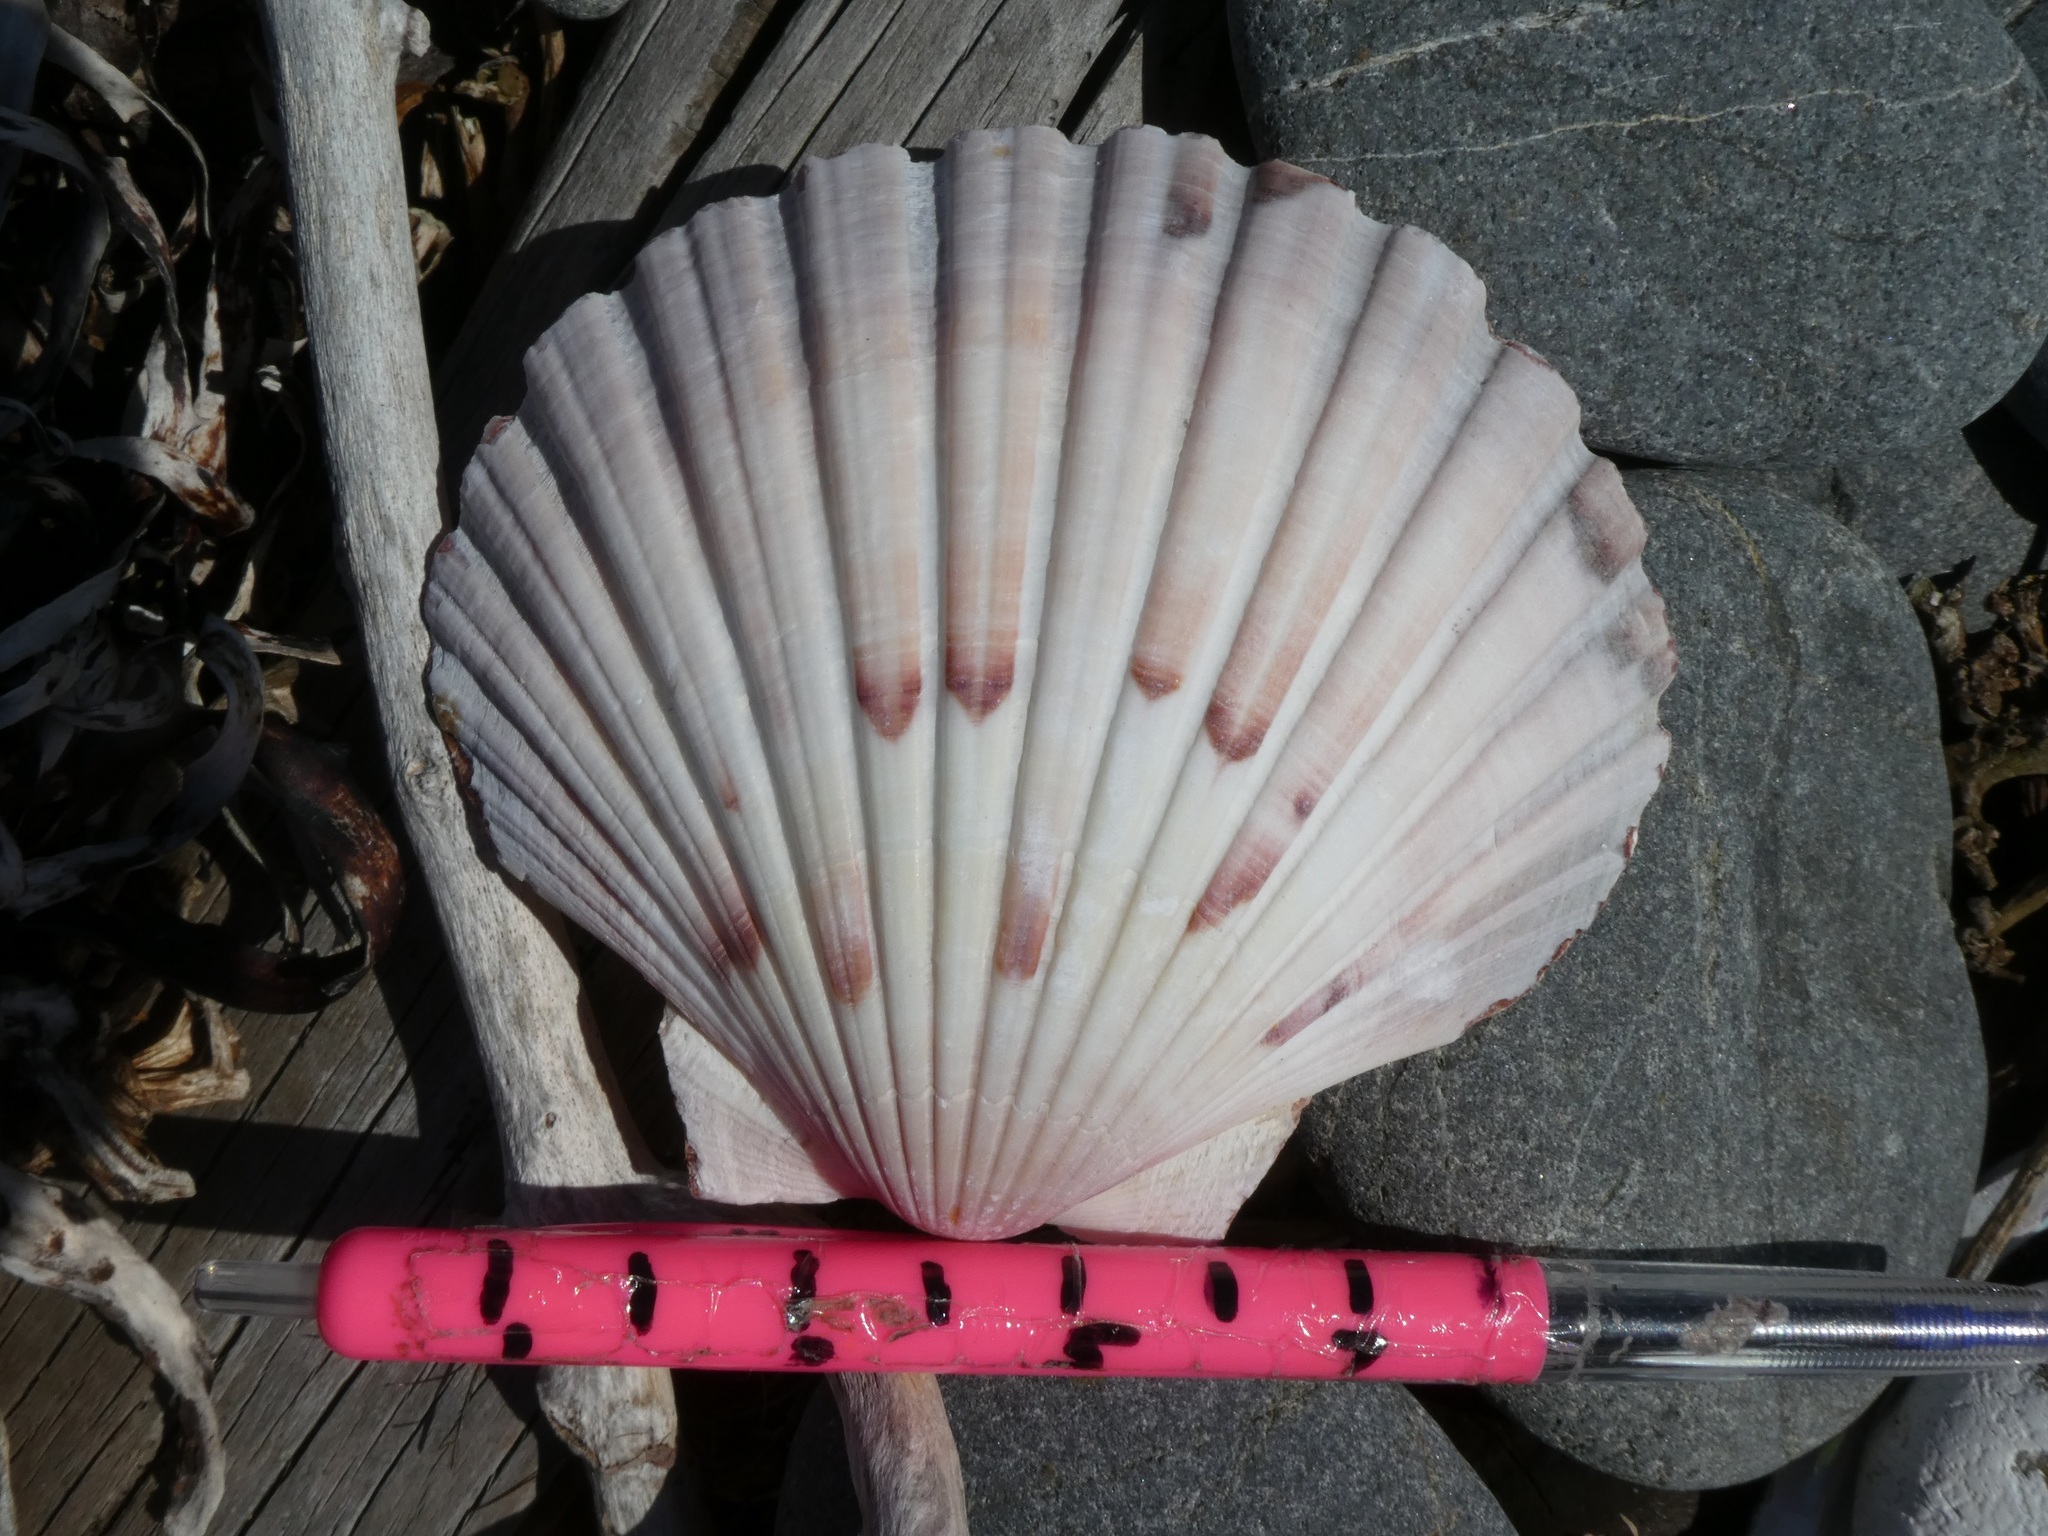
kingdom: Animalia
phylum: Mollusca
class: Bivalvia
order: Pectinida
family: Pectinidae
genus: Pecten
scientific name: Pecten novaezelandiae
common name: New zealand scallop
